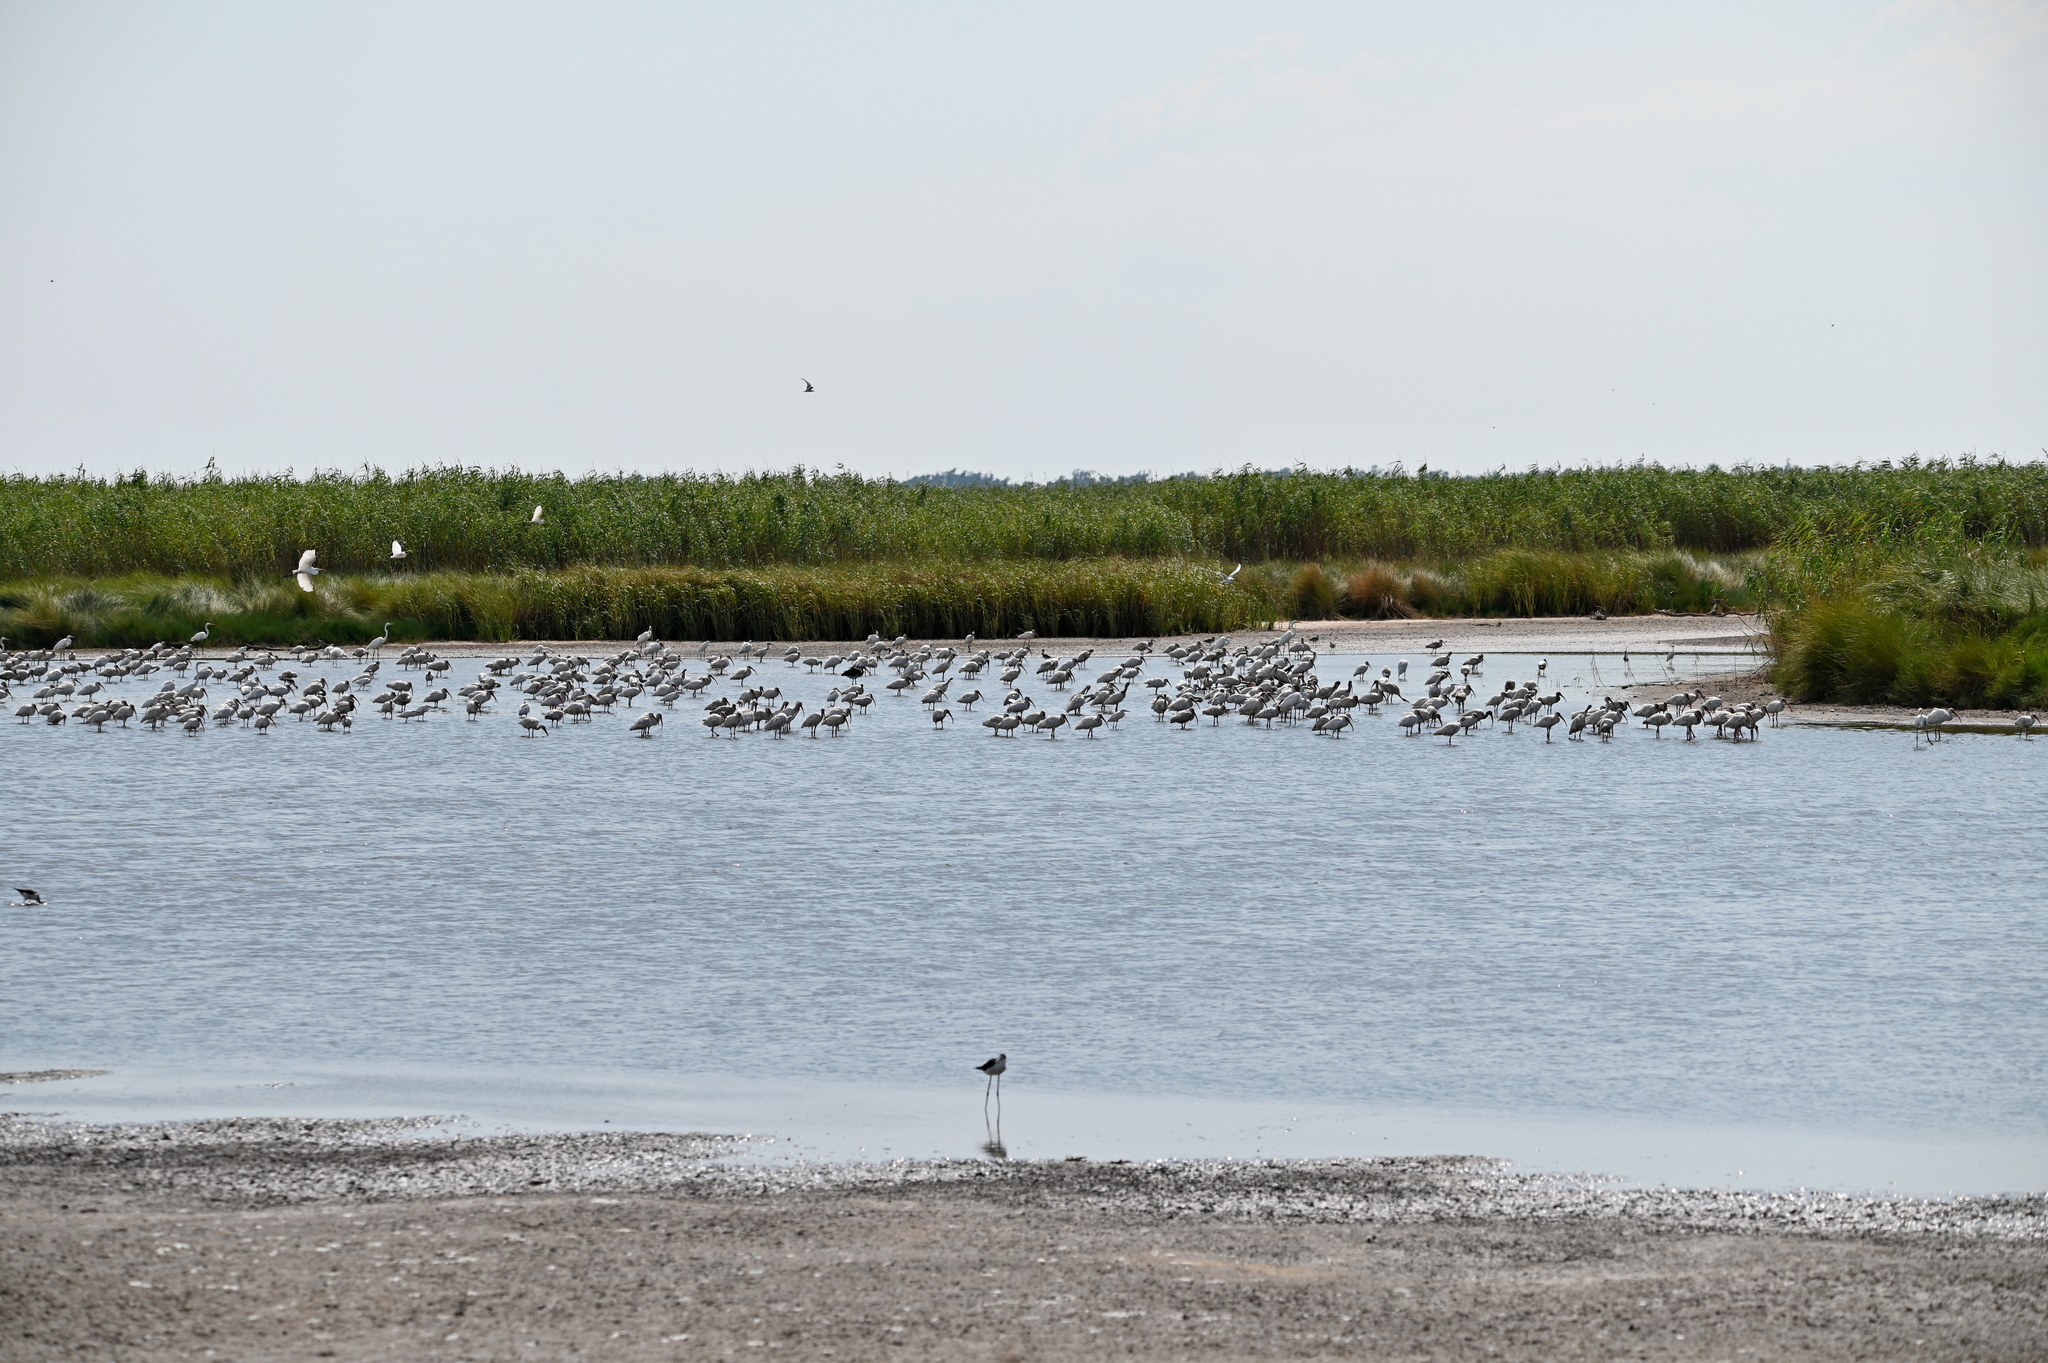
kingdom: Animalia
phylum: Chordata
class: Aves
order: Pelecaniformes
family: Threskiornithidae
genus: Eudocimus
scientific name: Eudocimus albus
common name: White ibis
